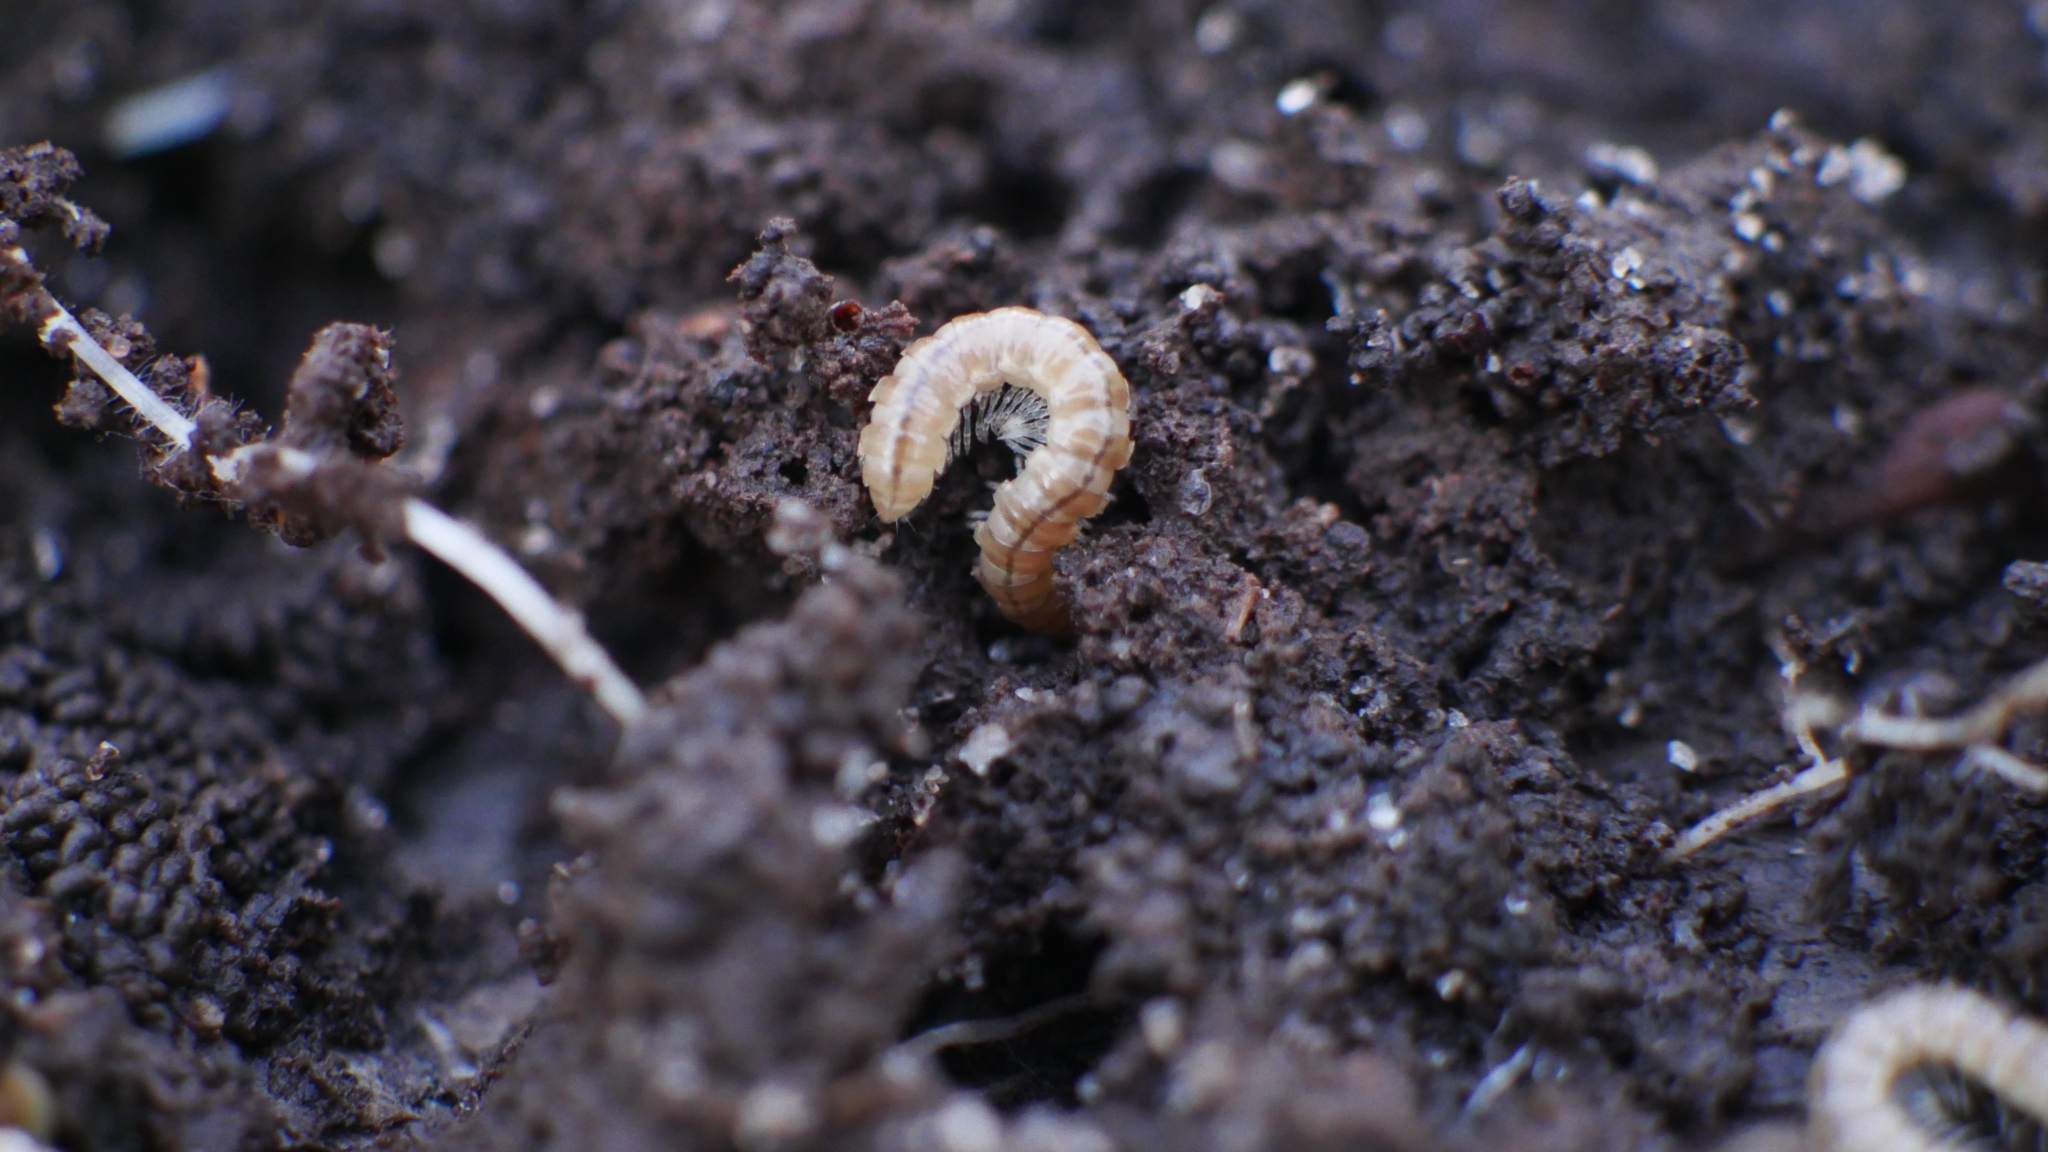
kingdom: Animalia
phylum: Arthropoda
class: Diplopoda
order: Polydesmida
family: Paradoxosomatidae
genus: Oxidus
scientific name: Oxidus gracilis
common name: Greenhouse millipede
